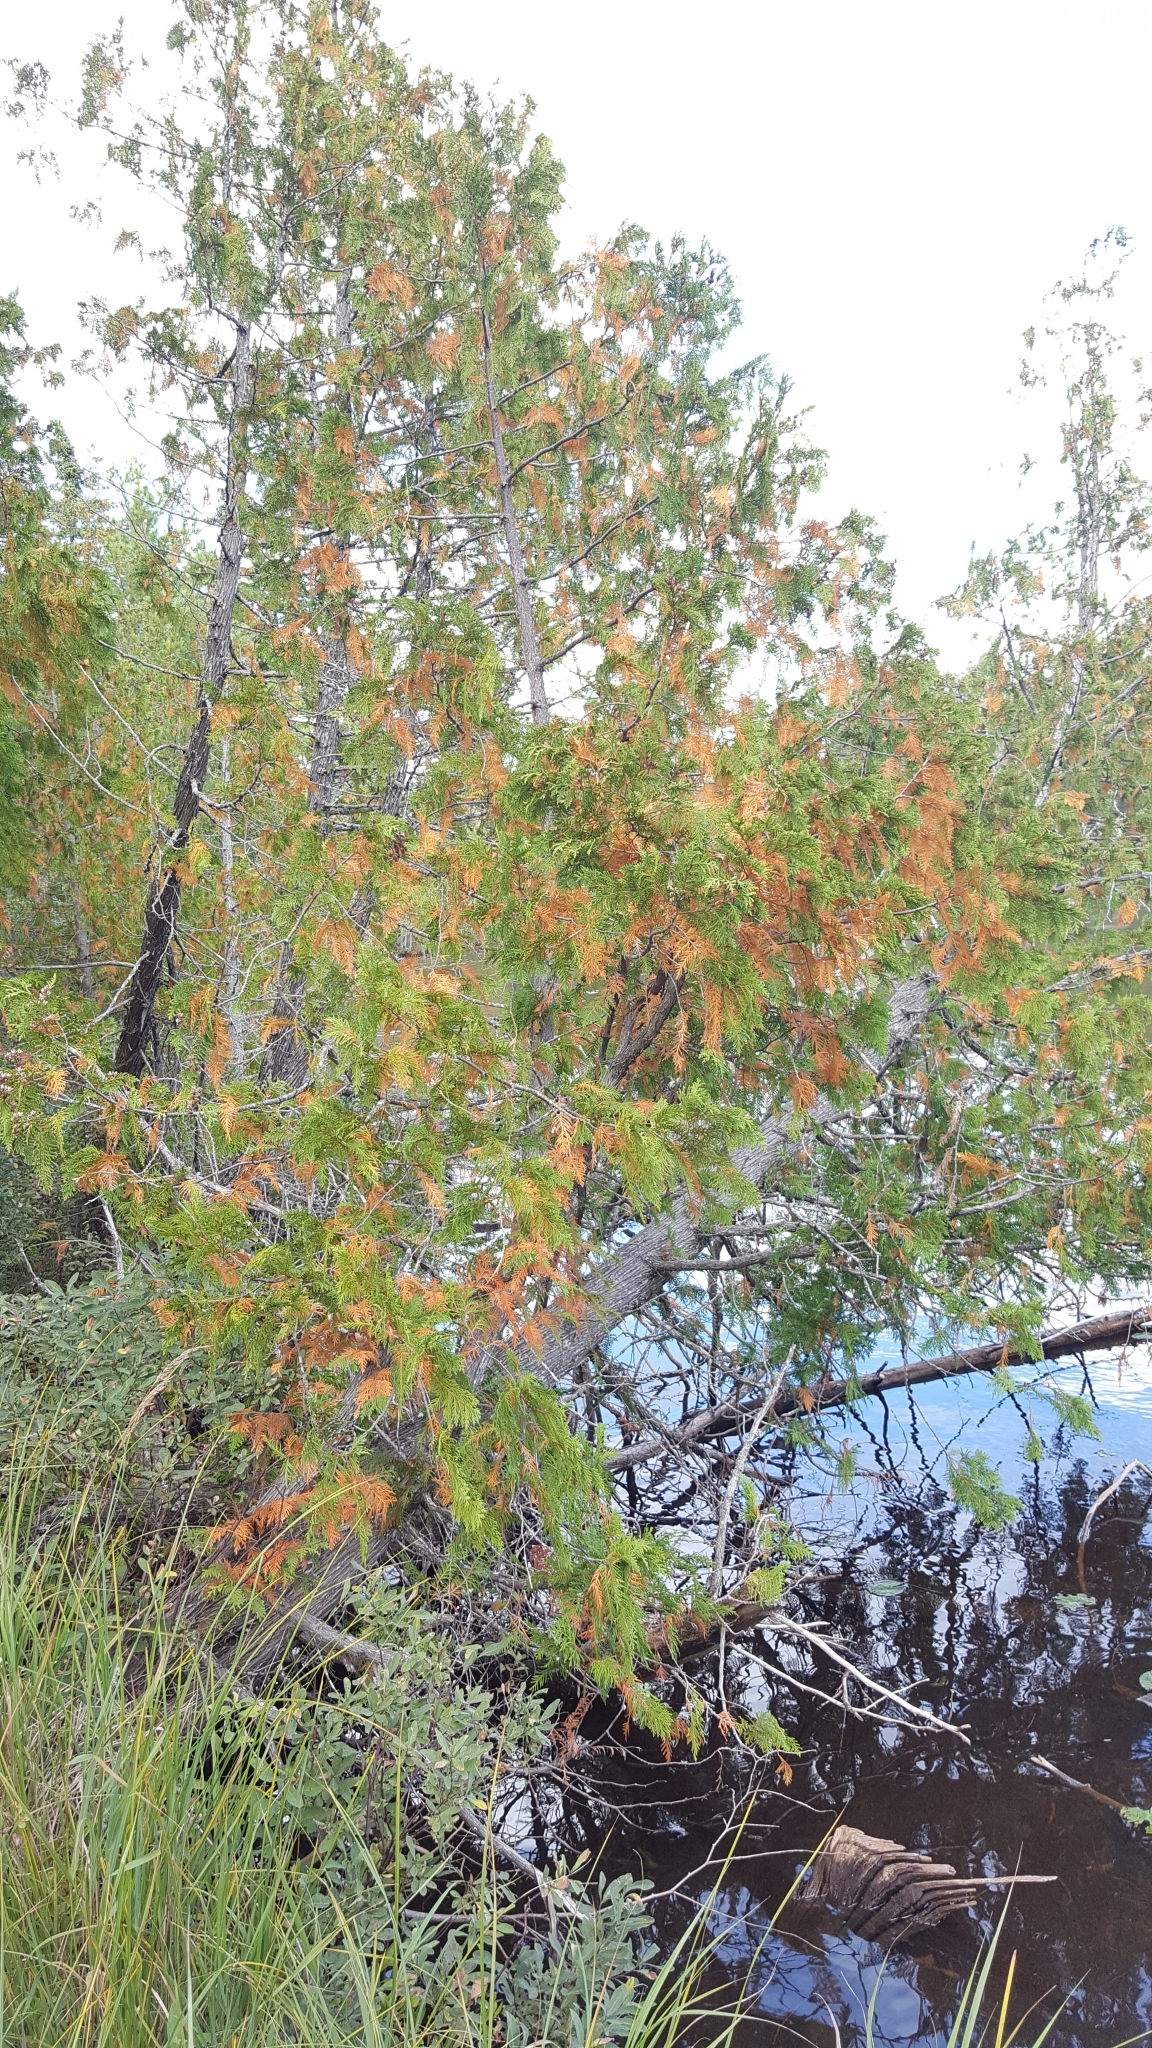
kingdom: Plantae
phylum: Tracheophyta
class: Pinopsida
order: Pinales
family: Cupressaceae
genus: Thuja
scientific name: Thuja occidentalis
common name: Northern white-cedar
